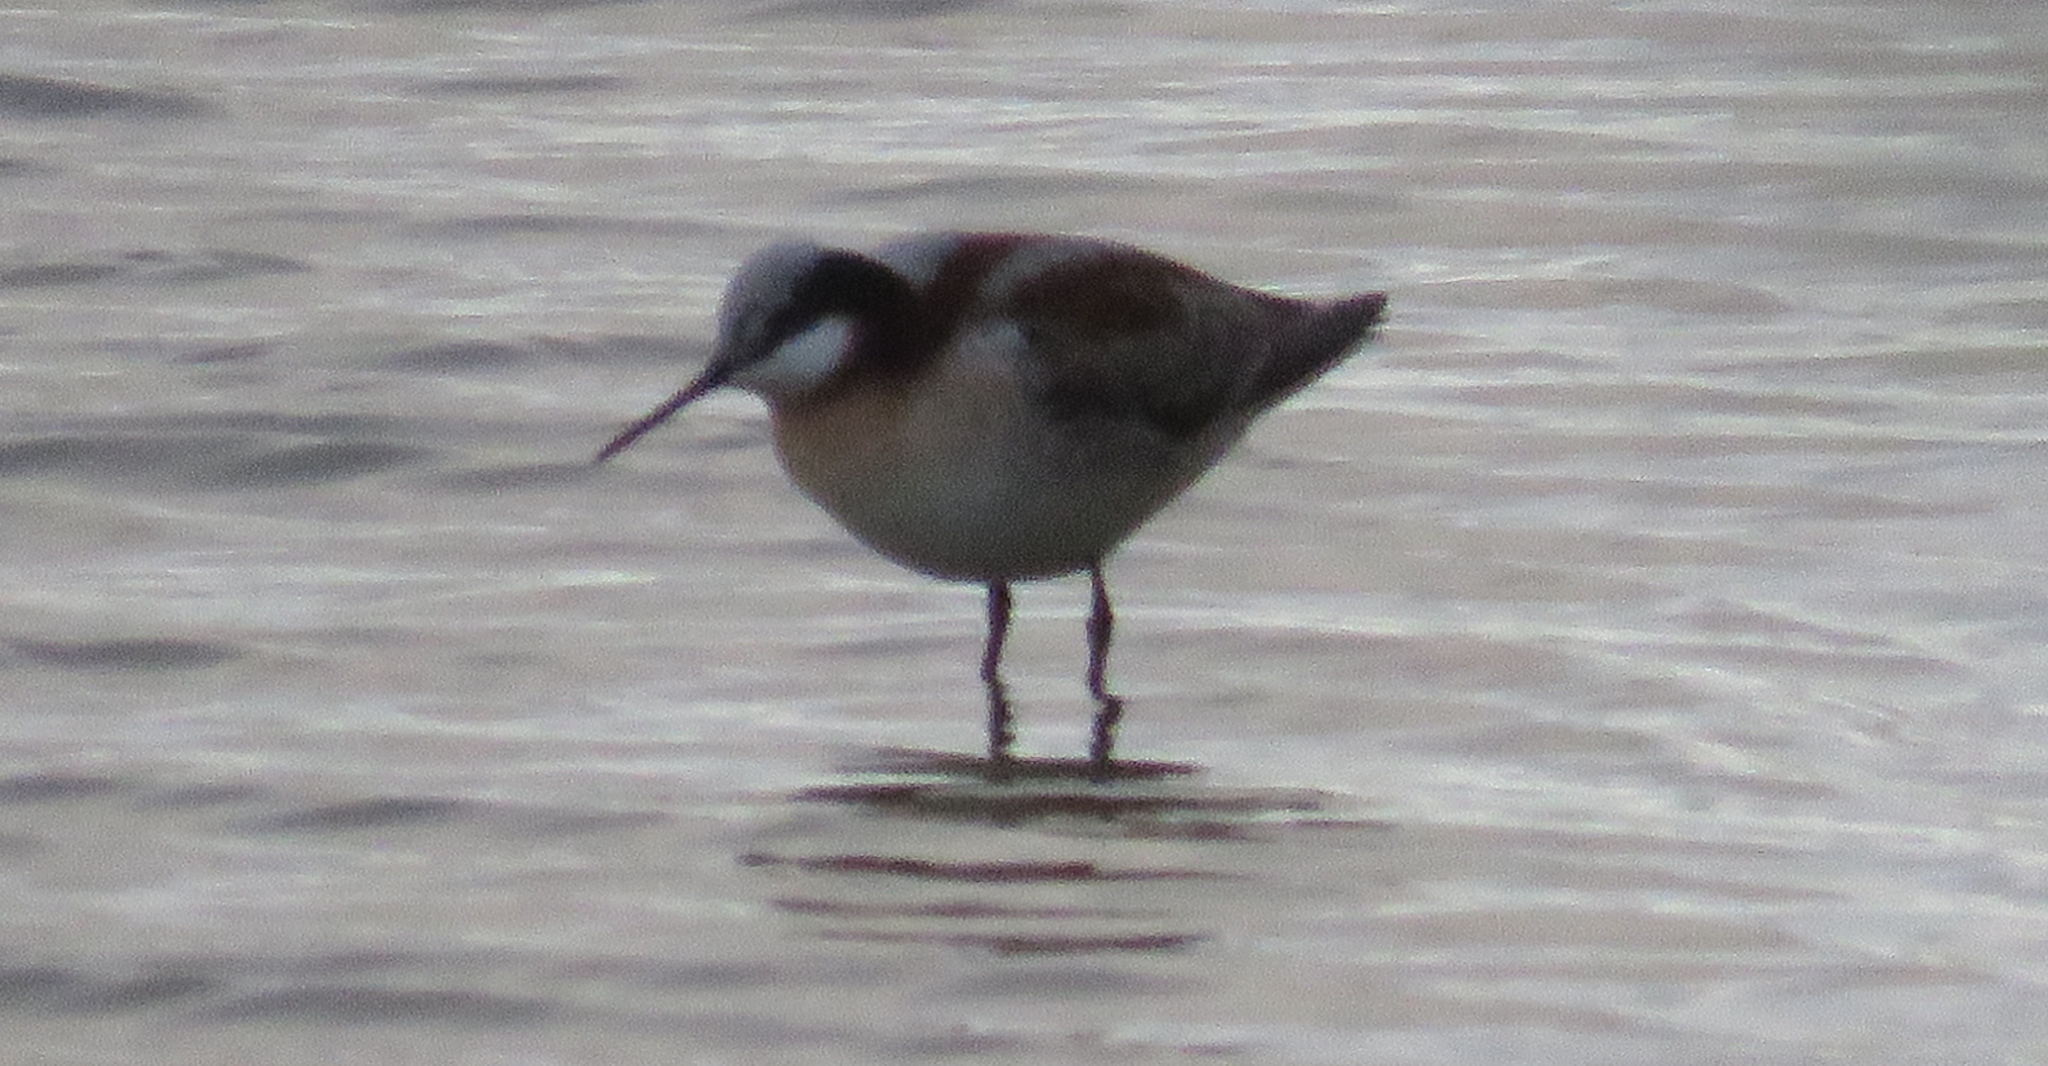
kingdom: Animalia
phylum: Chordata
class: Aves
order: Charadriiformes
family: Scolopacidae
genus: Phalaropus
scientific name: Phalaropus tricolor
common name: Wilson's phalarope
